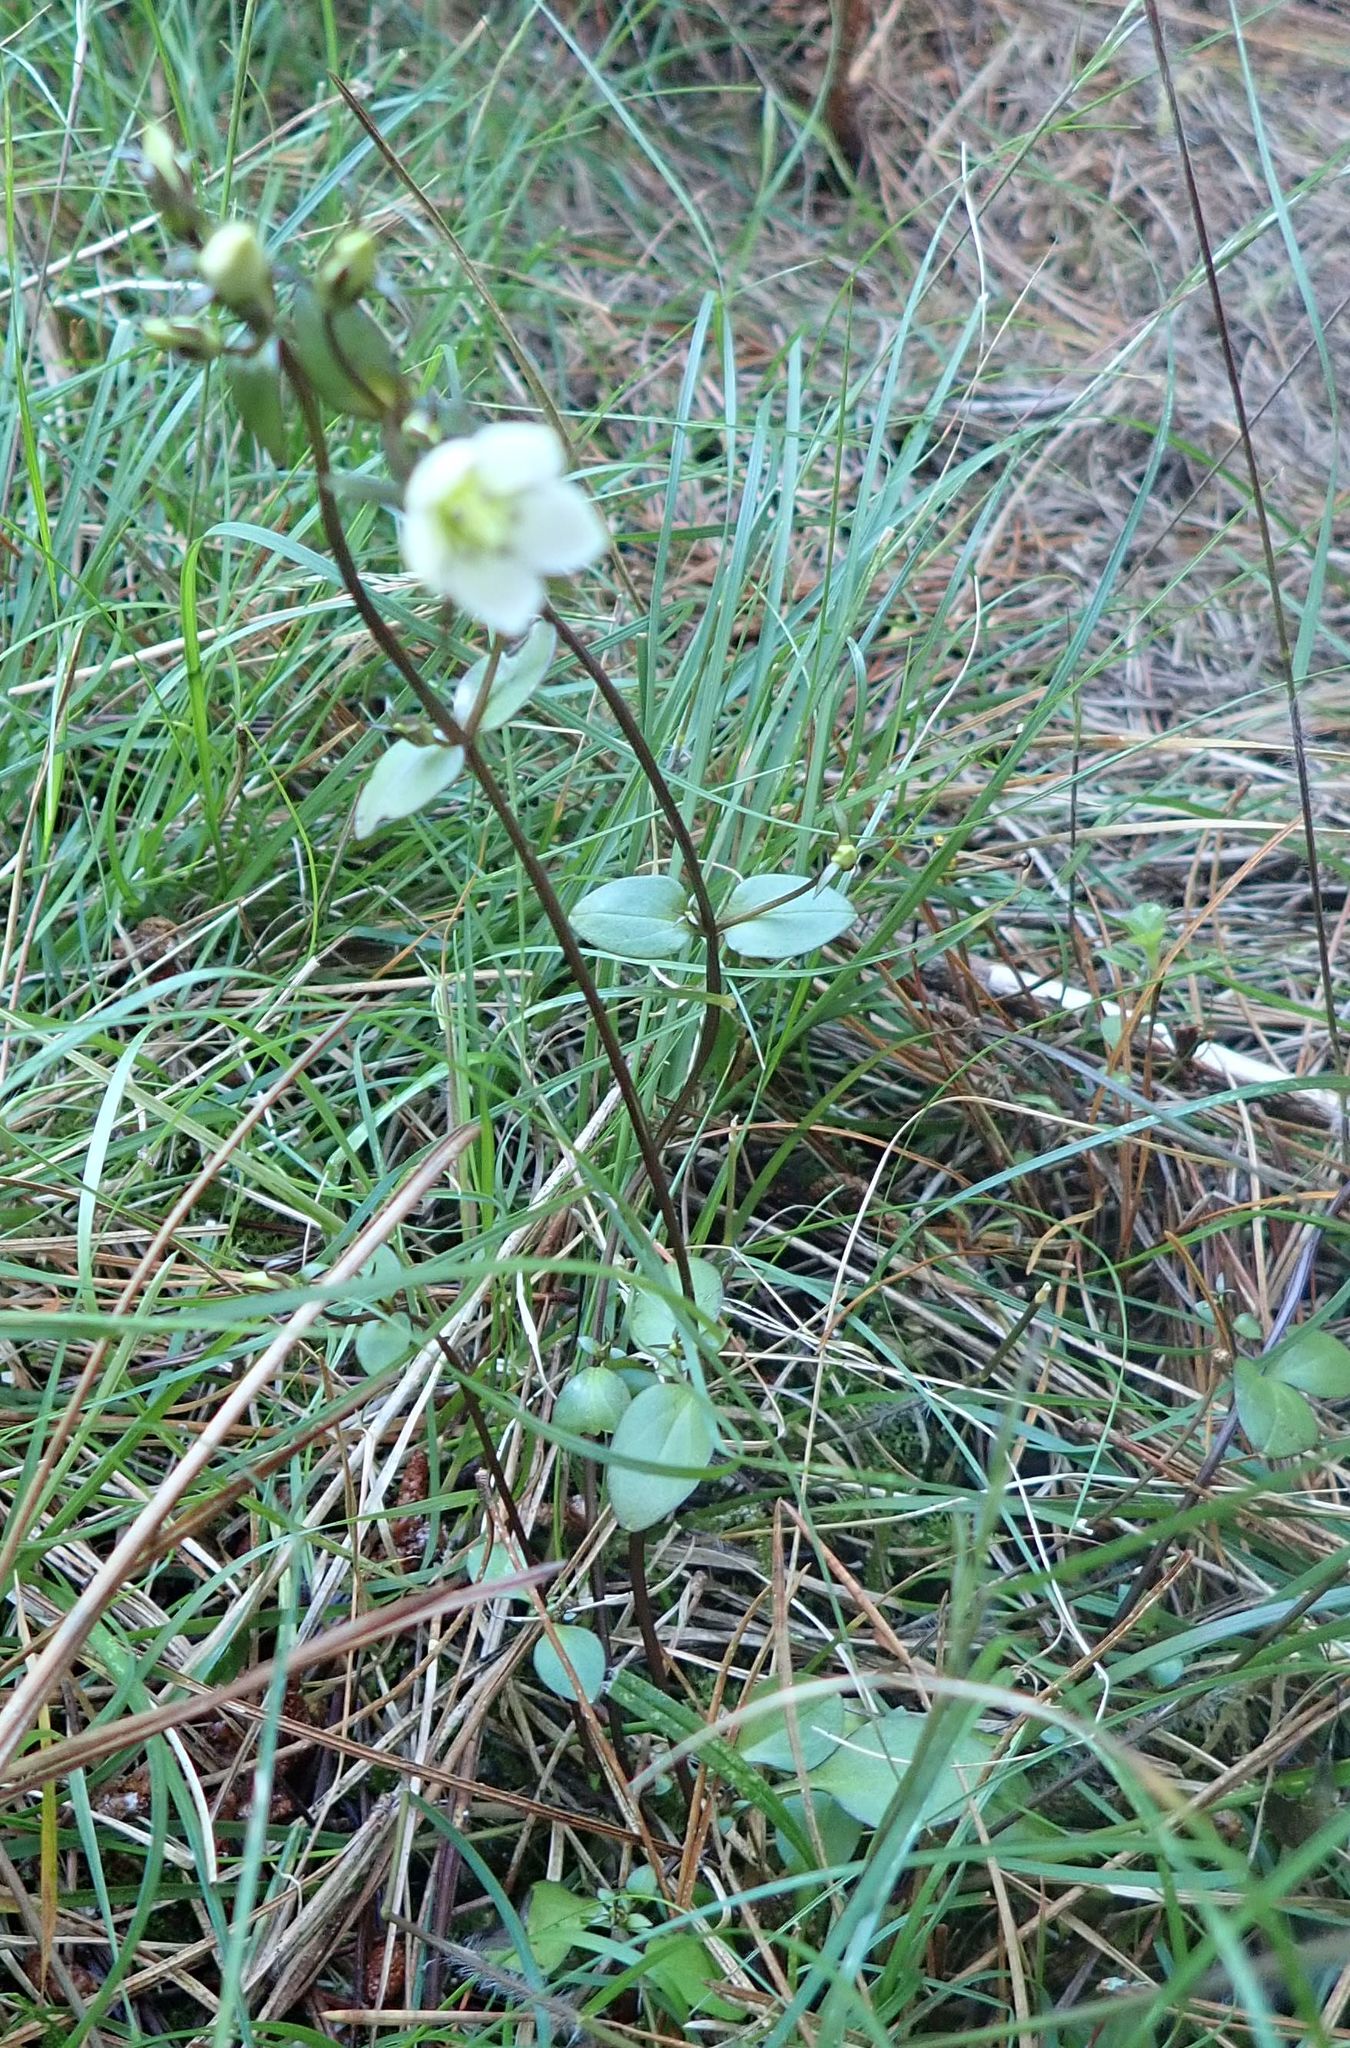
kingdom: Plantae
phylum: Tracheophyta
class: Magnoliopsida
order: Gentianales
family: Gentianaceae
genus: Gentianella
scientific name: Gentianella grisebachii
